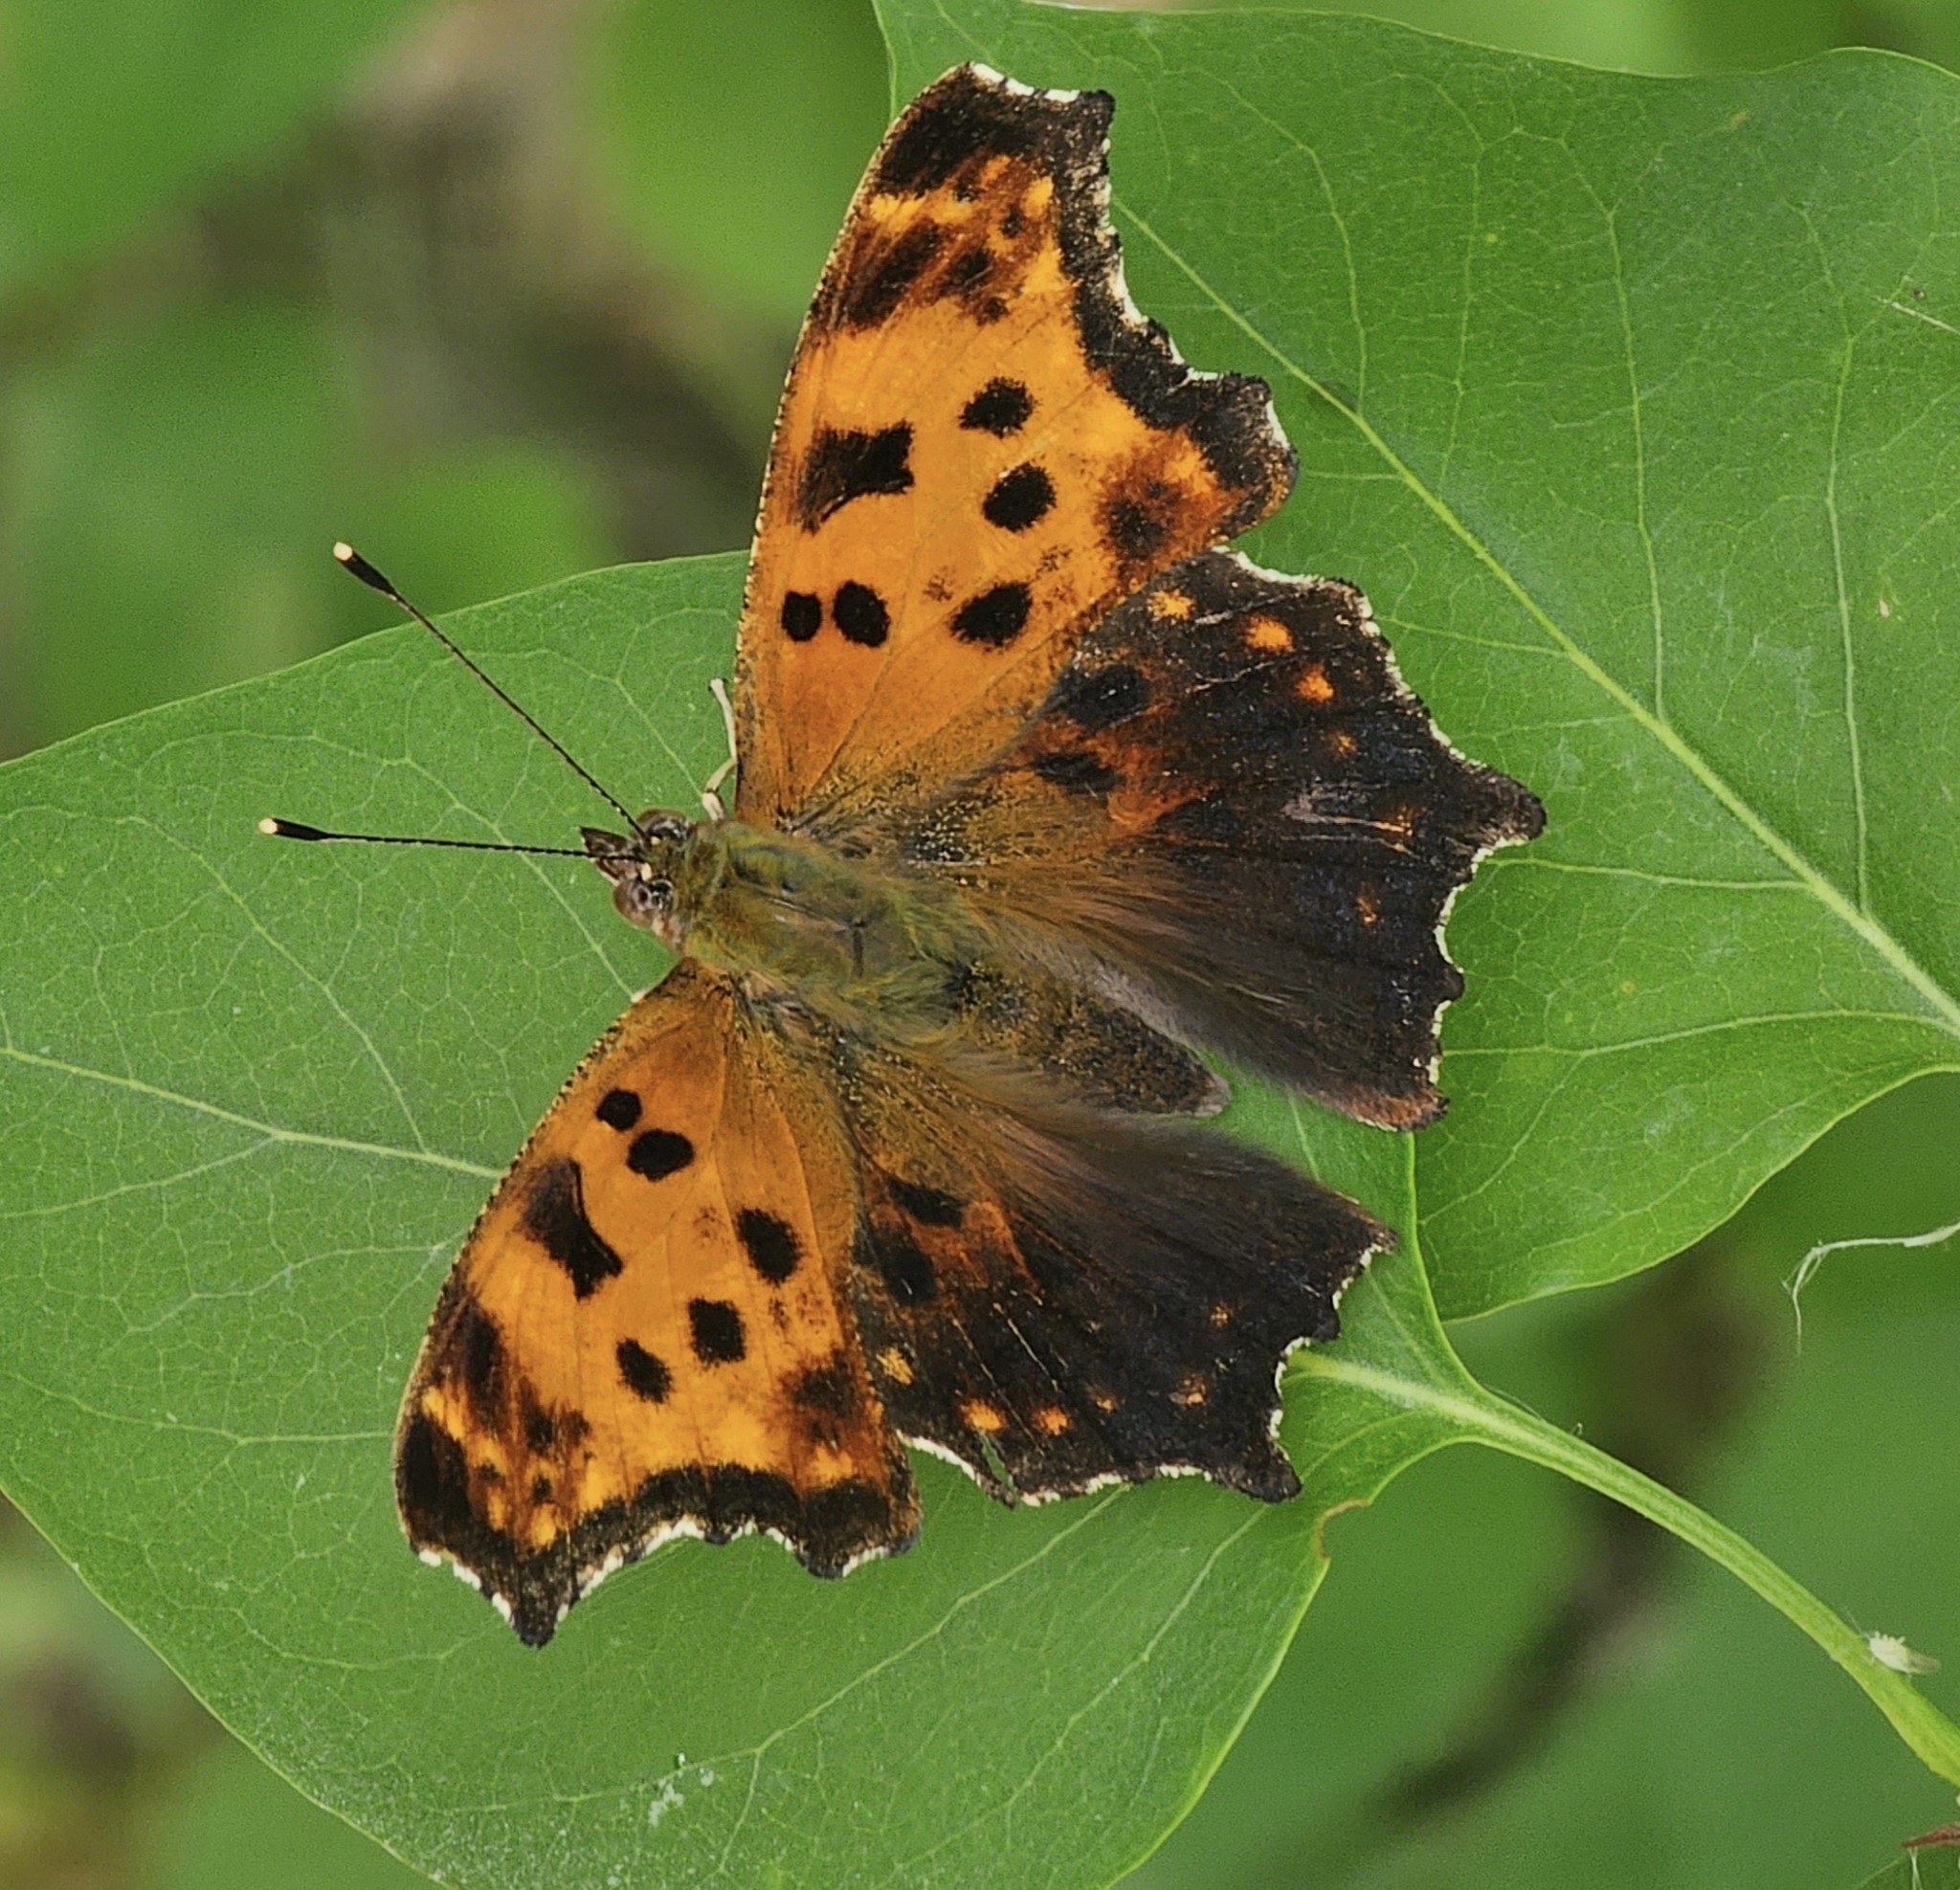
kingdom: Animalia
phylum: Arthropoda
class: Insecta
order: Lepidoptera
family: Nymphalidae
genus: Polygonia
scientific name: Polygonia comma
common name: Eastern comma
